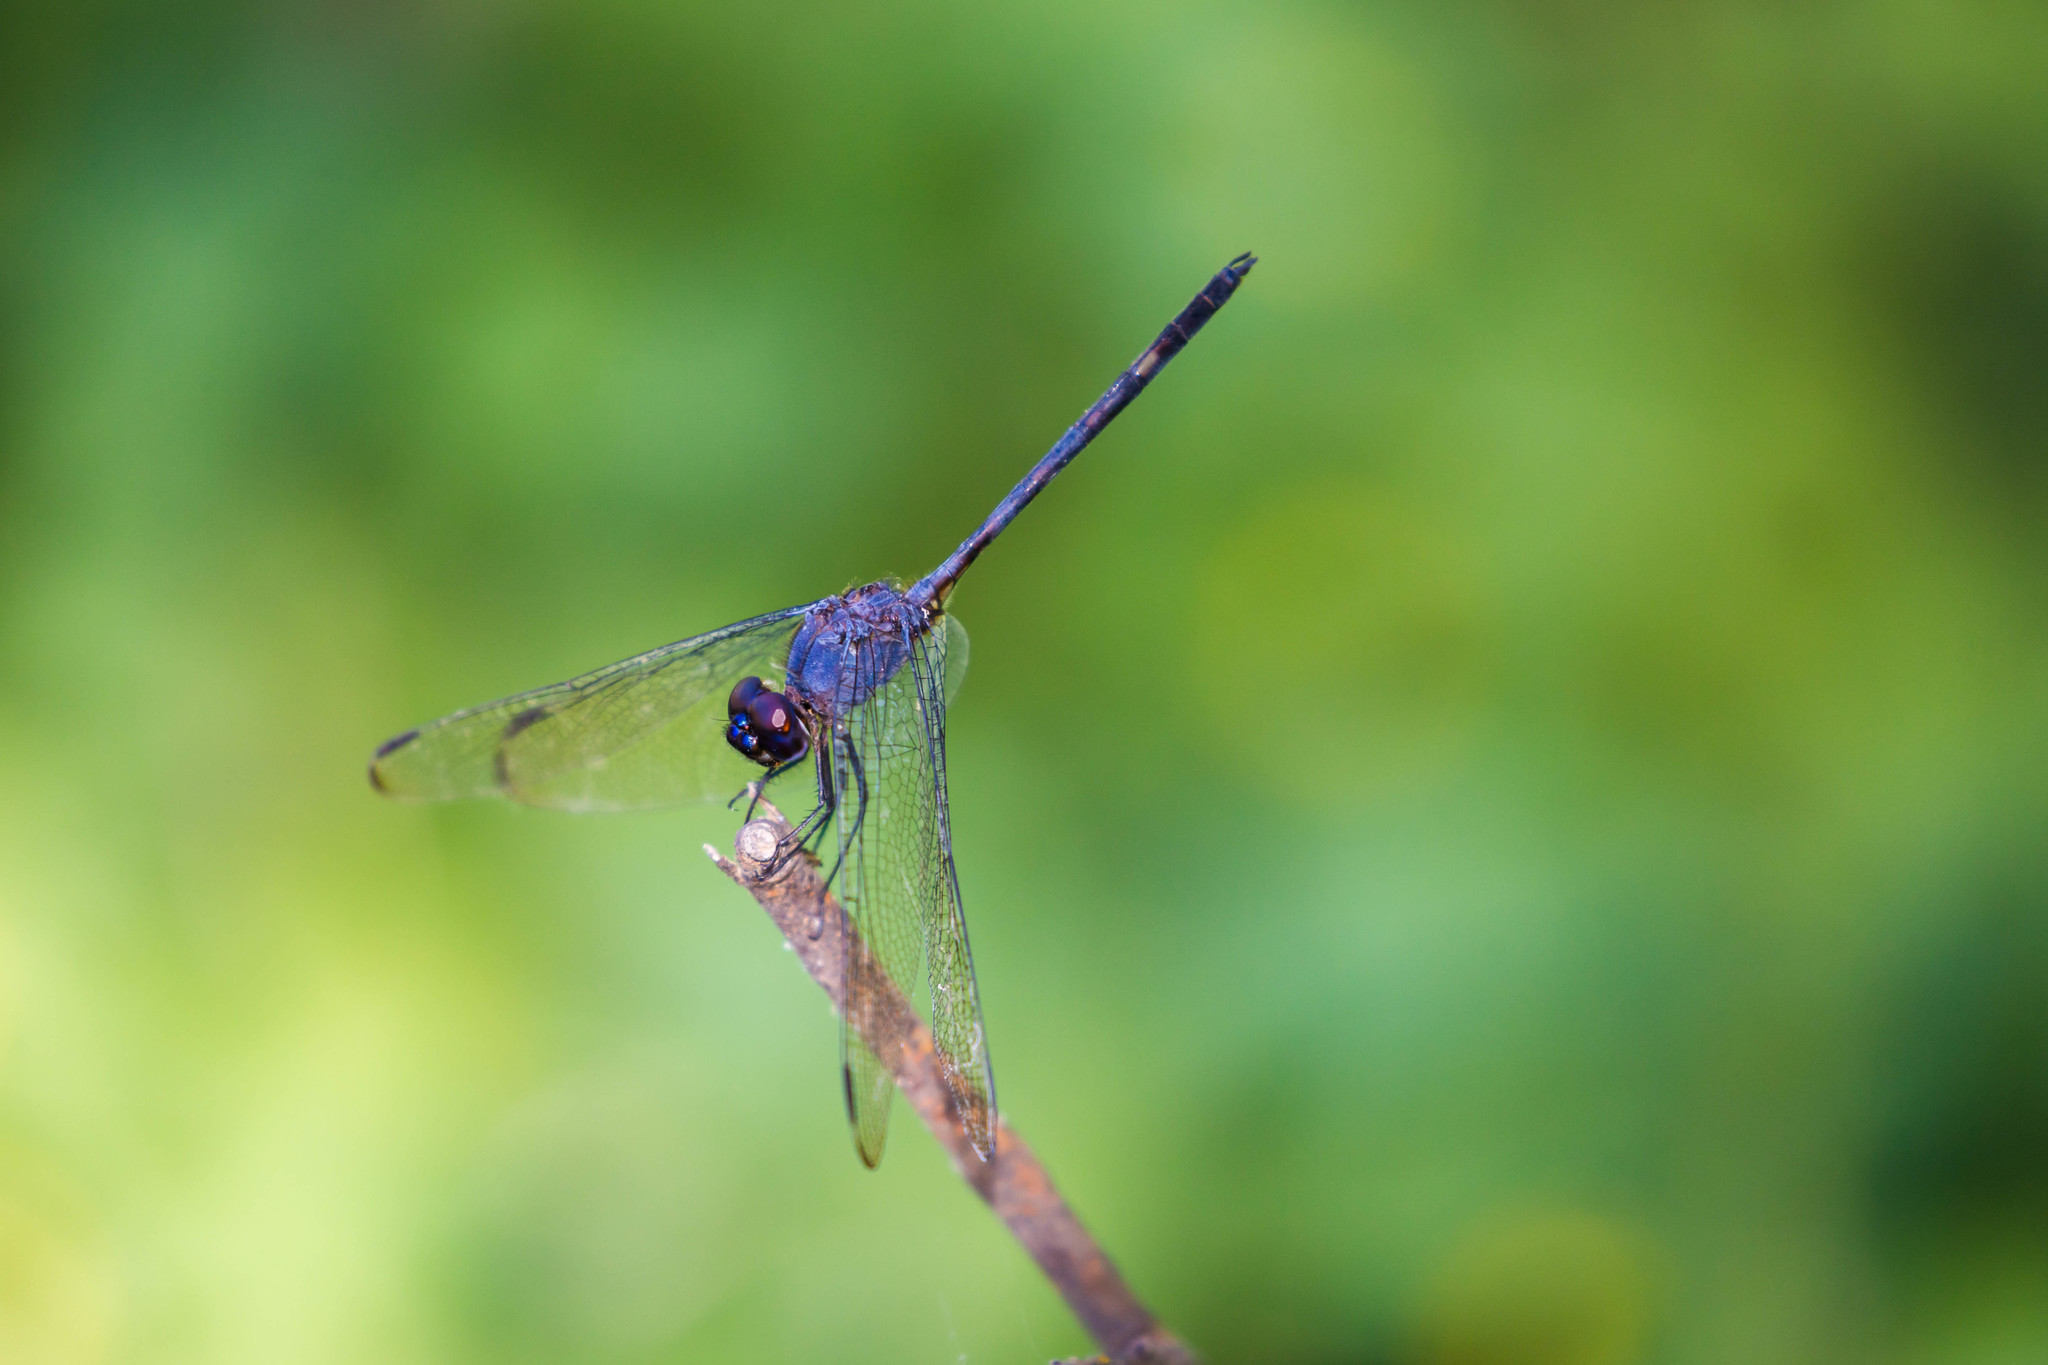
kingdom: Animalia
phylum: Arthropoda
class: Insecta
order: Odonata
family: Libellulidae
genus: Dythemis
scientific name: Dythemis nigrescens
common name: Black setwing
